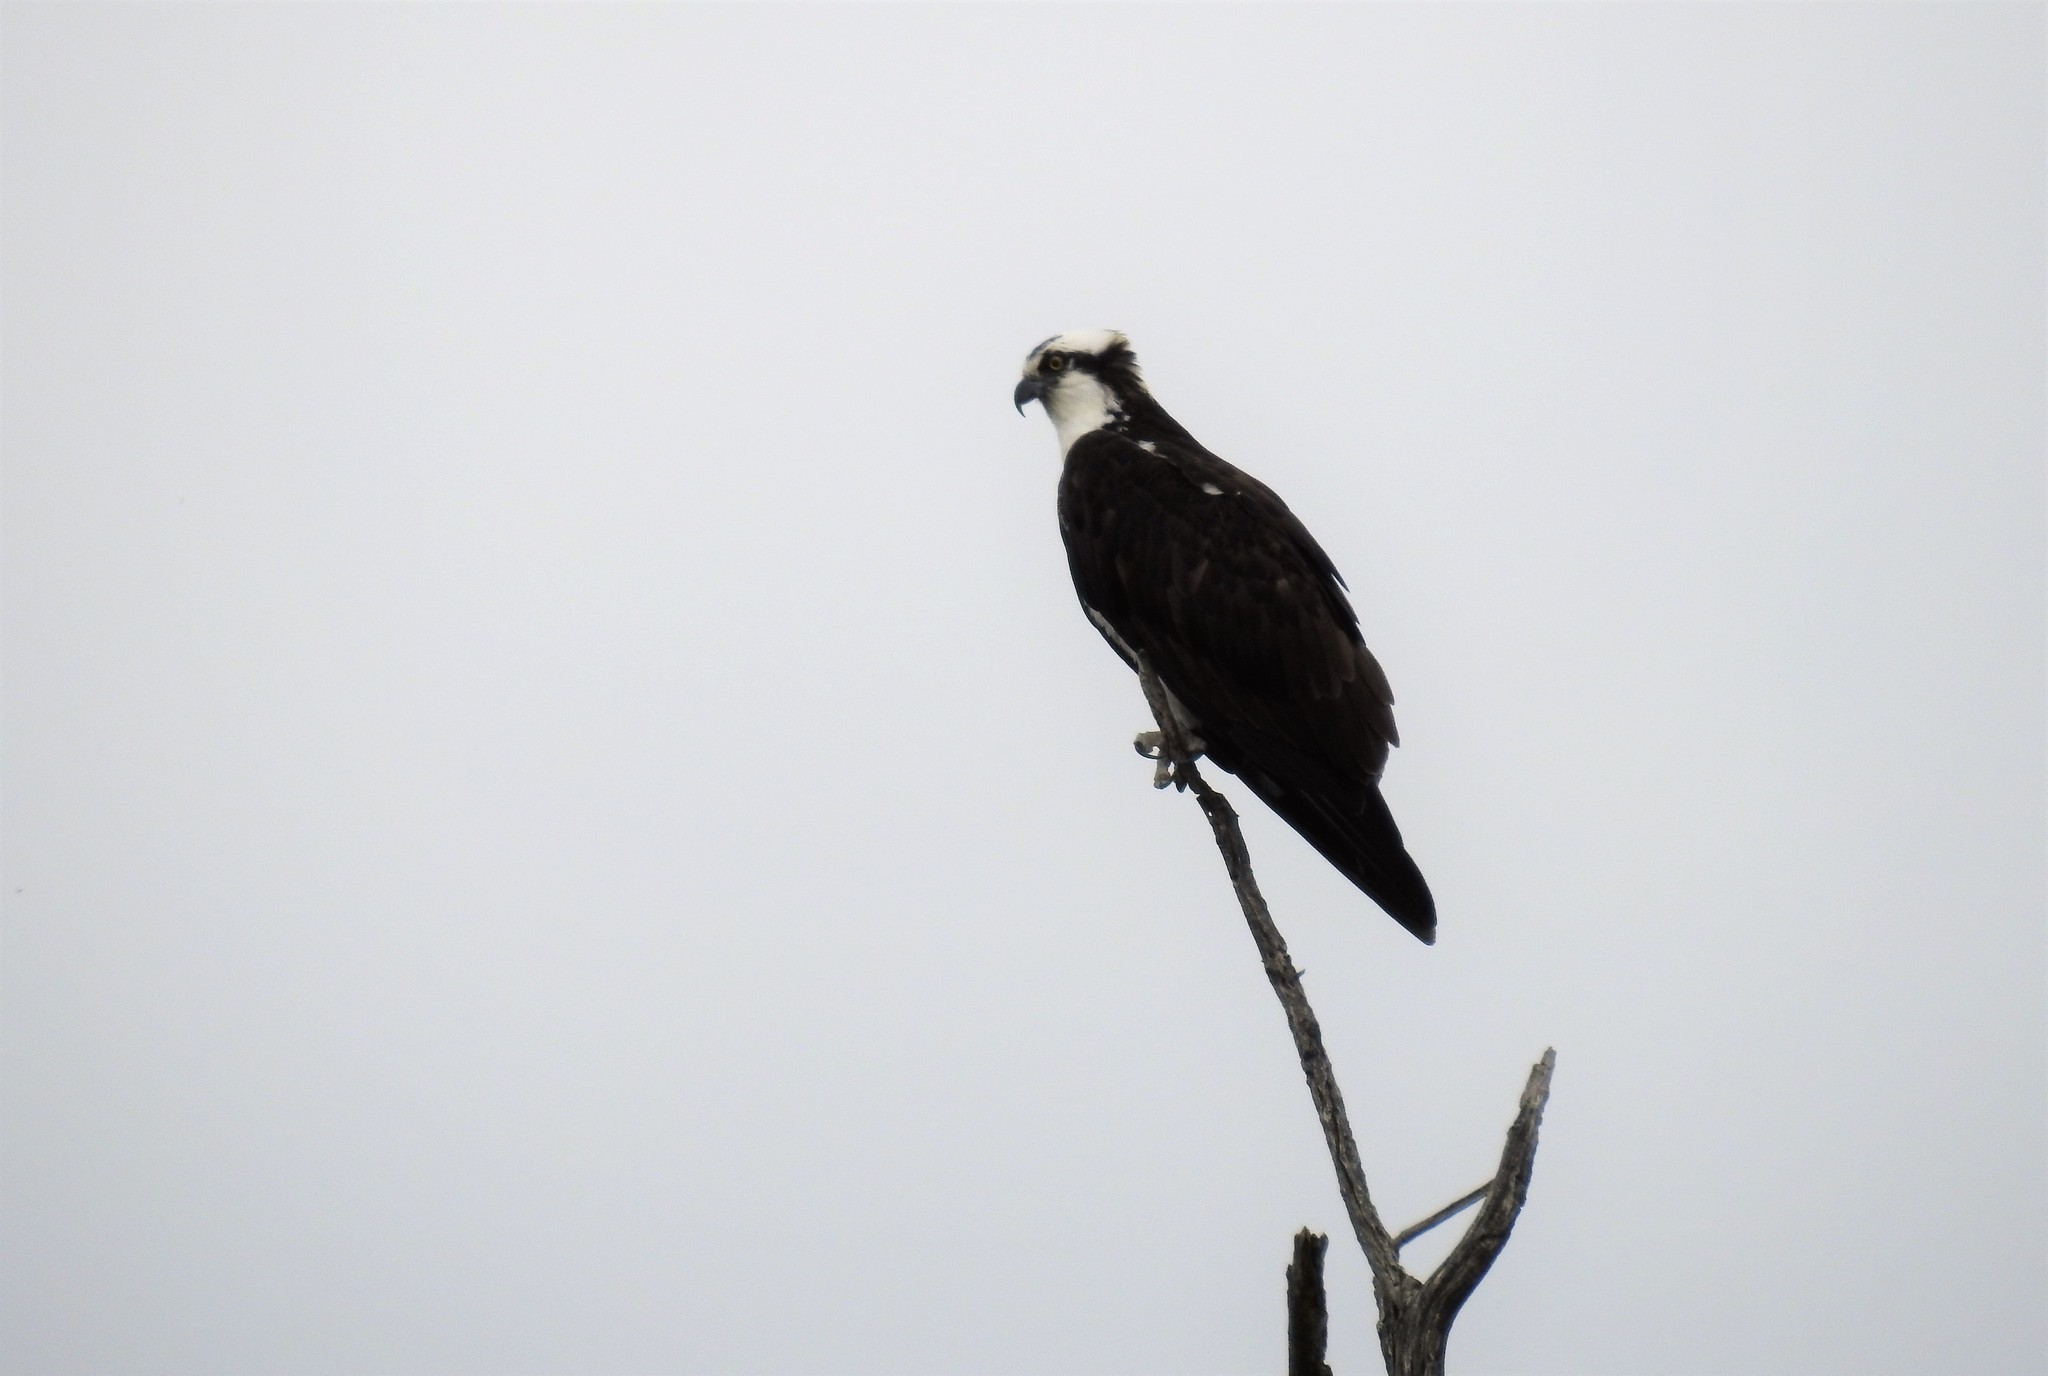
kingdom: Animalia
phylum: Chordata
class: Aves
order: Accipitriformes
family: Pandionidae
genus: Pandion
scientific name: Pandion haliaetus
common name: Osprey
